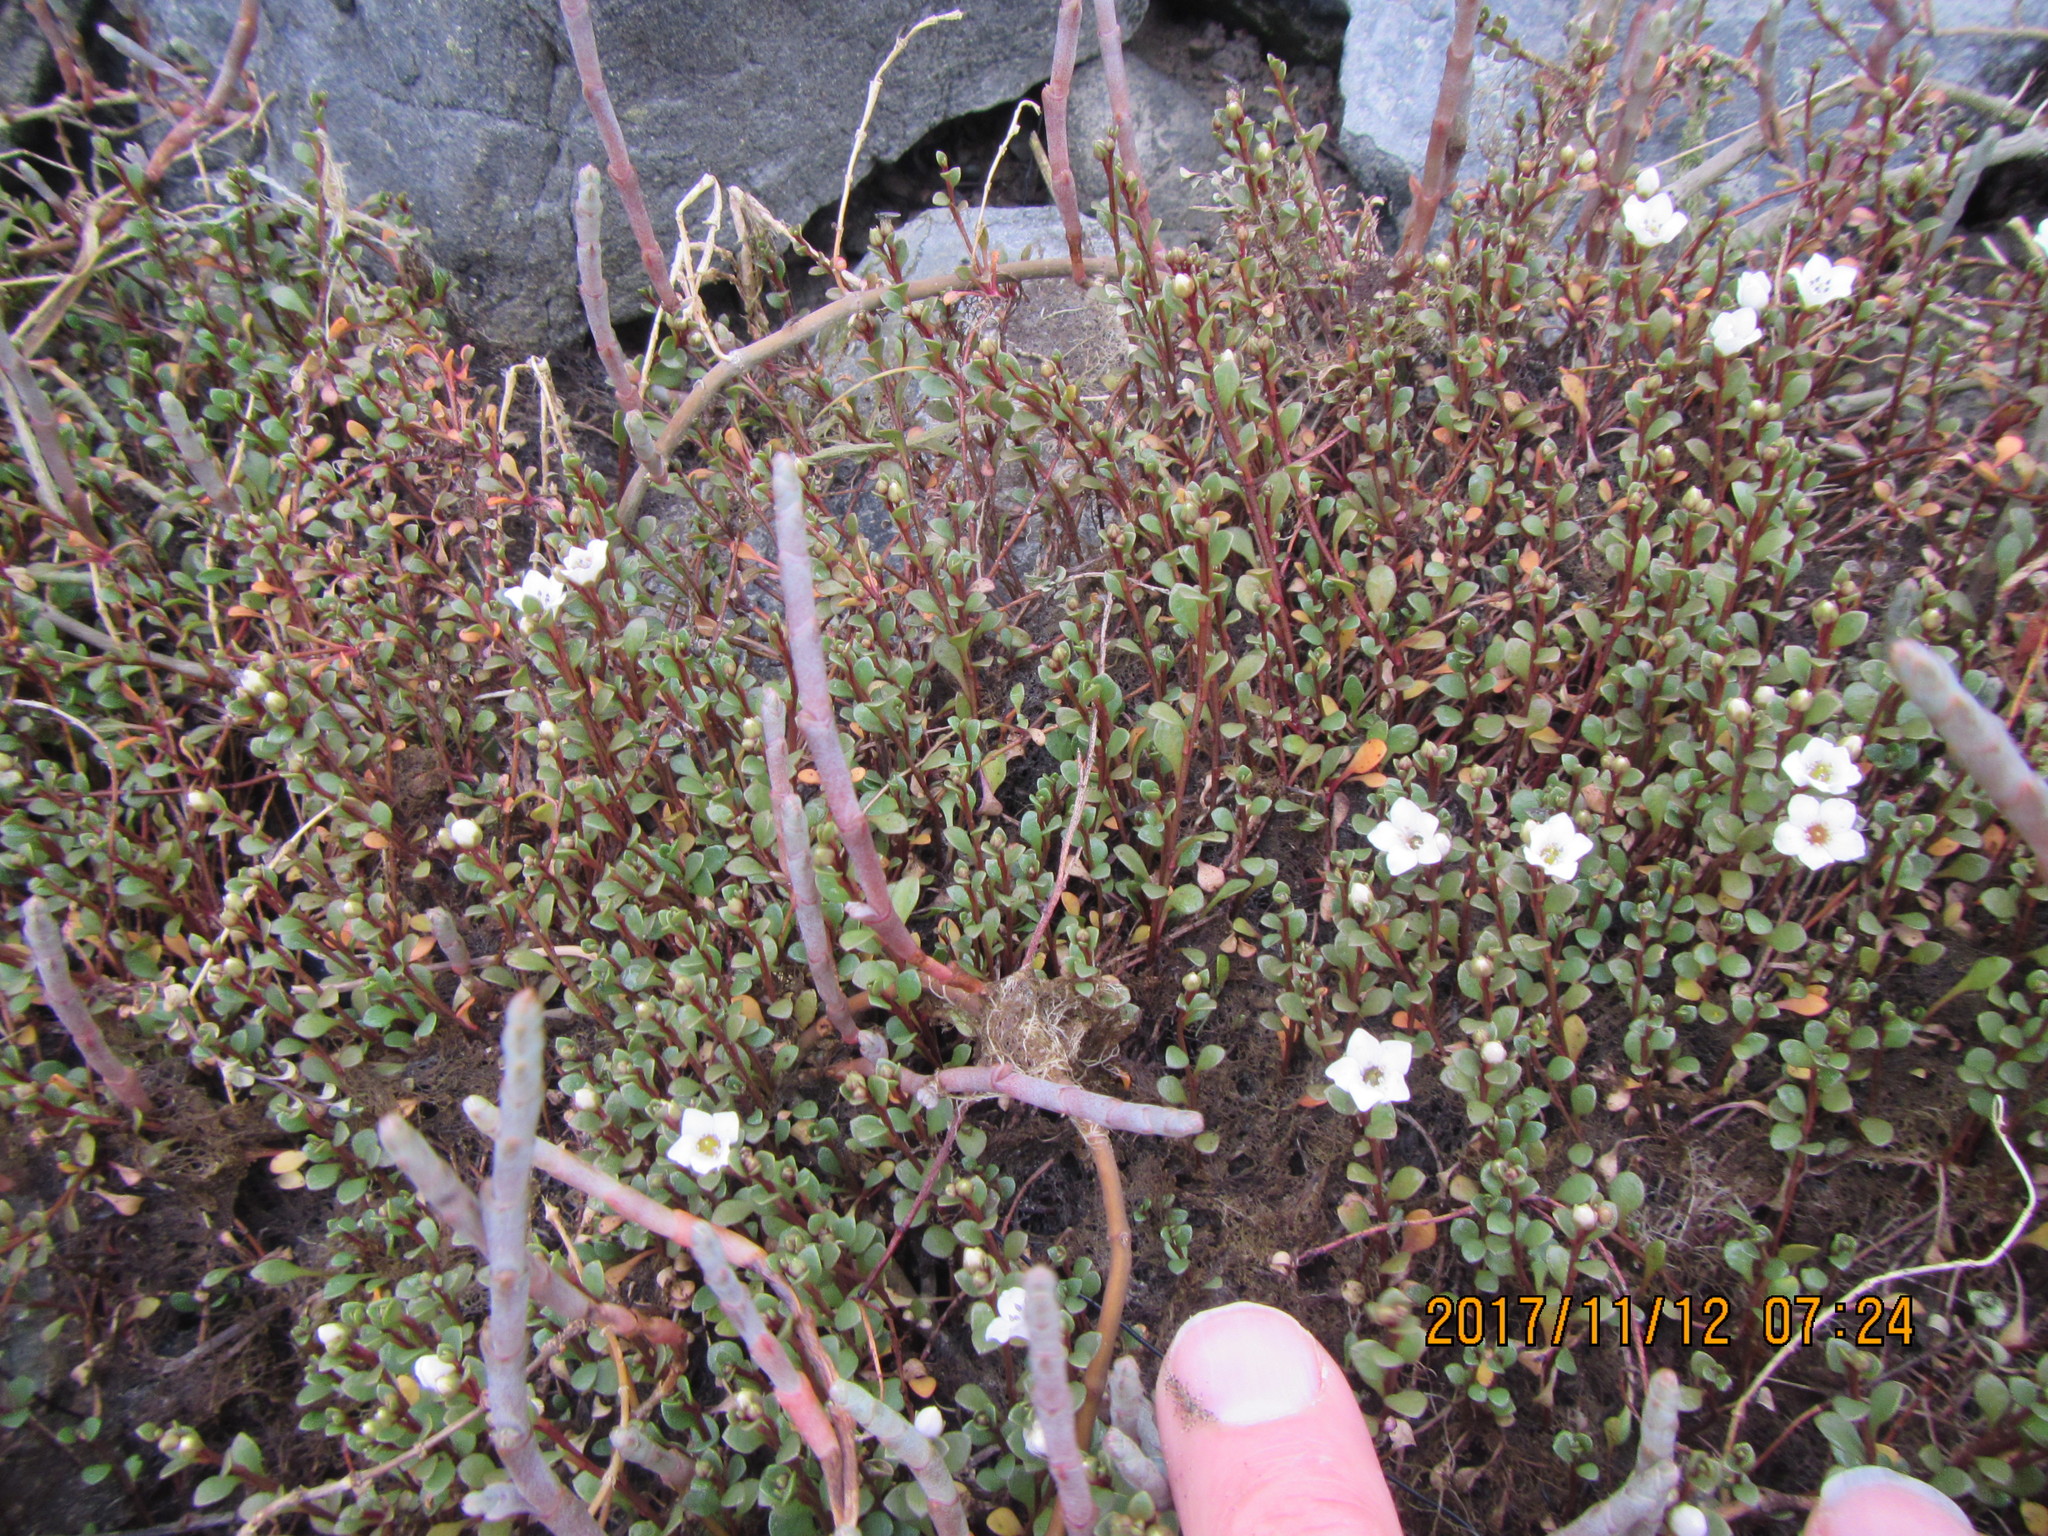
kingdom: Plantae
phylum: Tracheophyta
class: Magnoliopsida
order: Caryophyllales
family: Amaranthaceae
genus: Salicornia
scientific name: Salicornia quinqueflora
